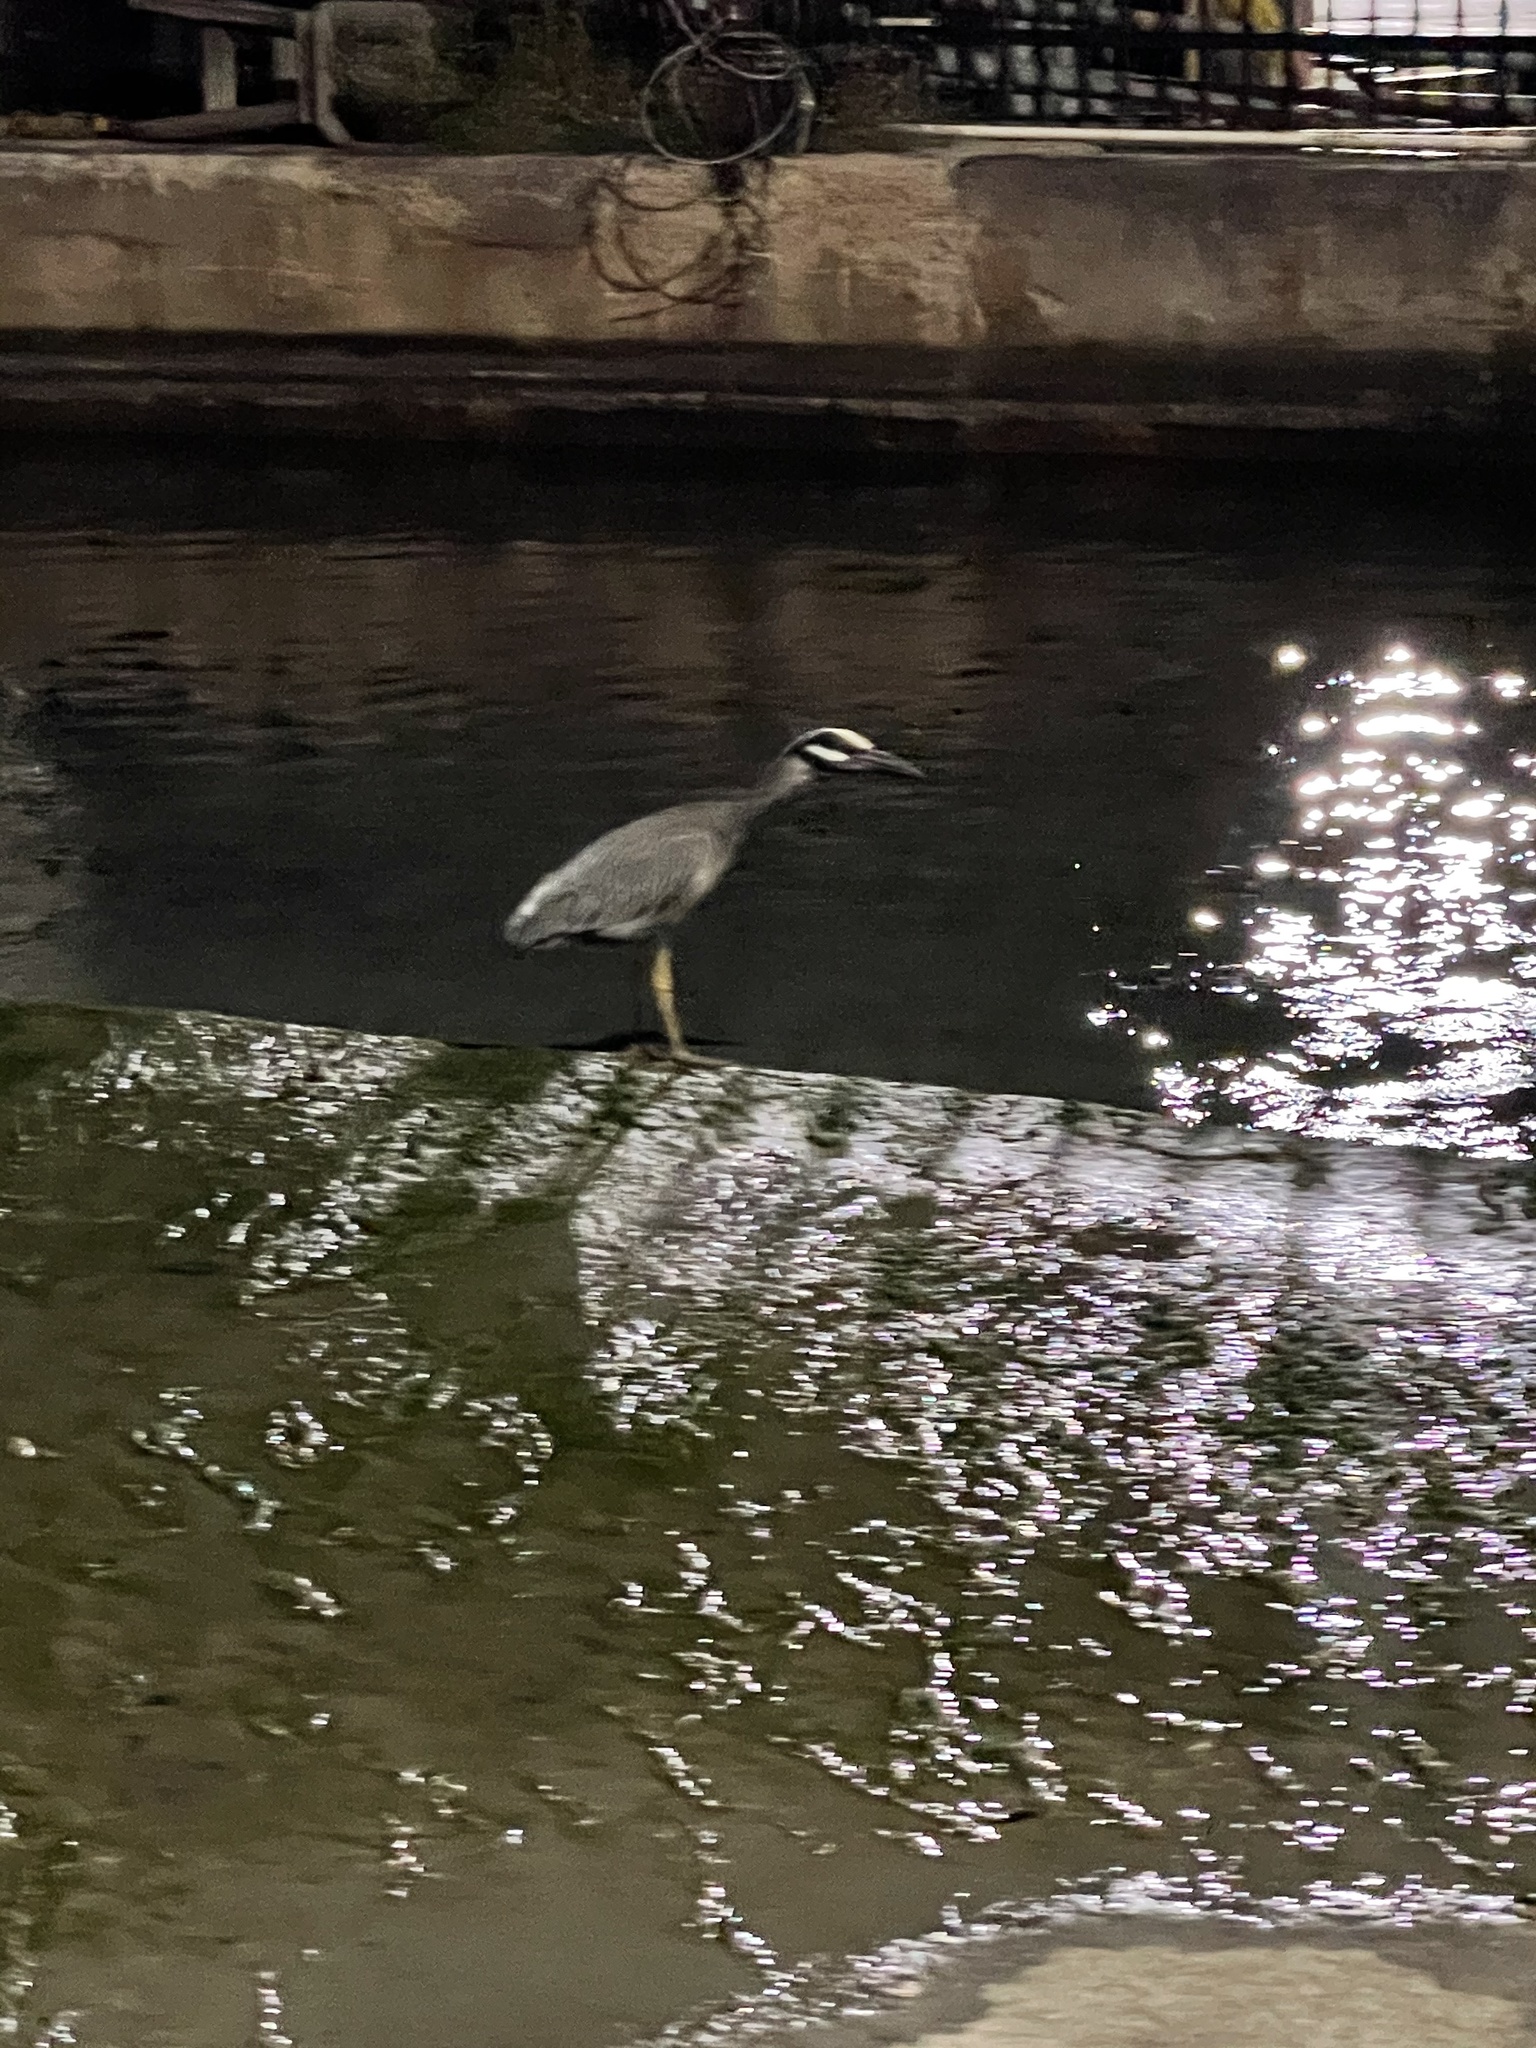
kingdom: Animalia
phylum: Chordata
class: Aves
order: Pelecaniformes
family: Ardeidae
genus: Nyctanassa
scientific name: Nyctanassa violacea
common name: Yellow-crowned night heron
